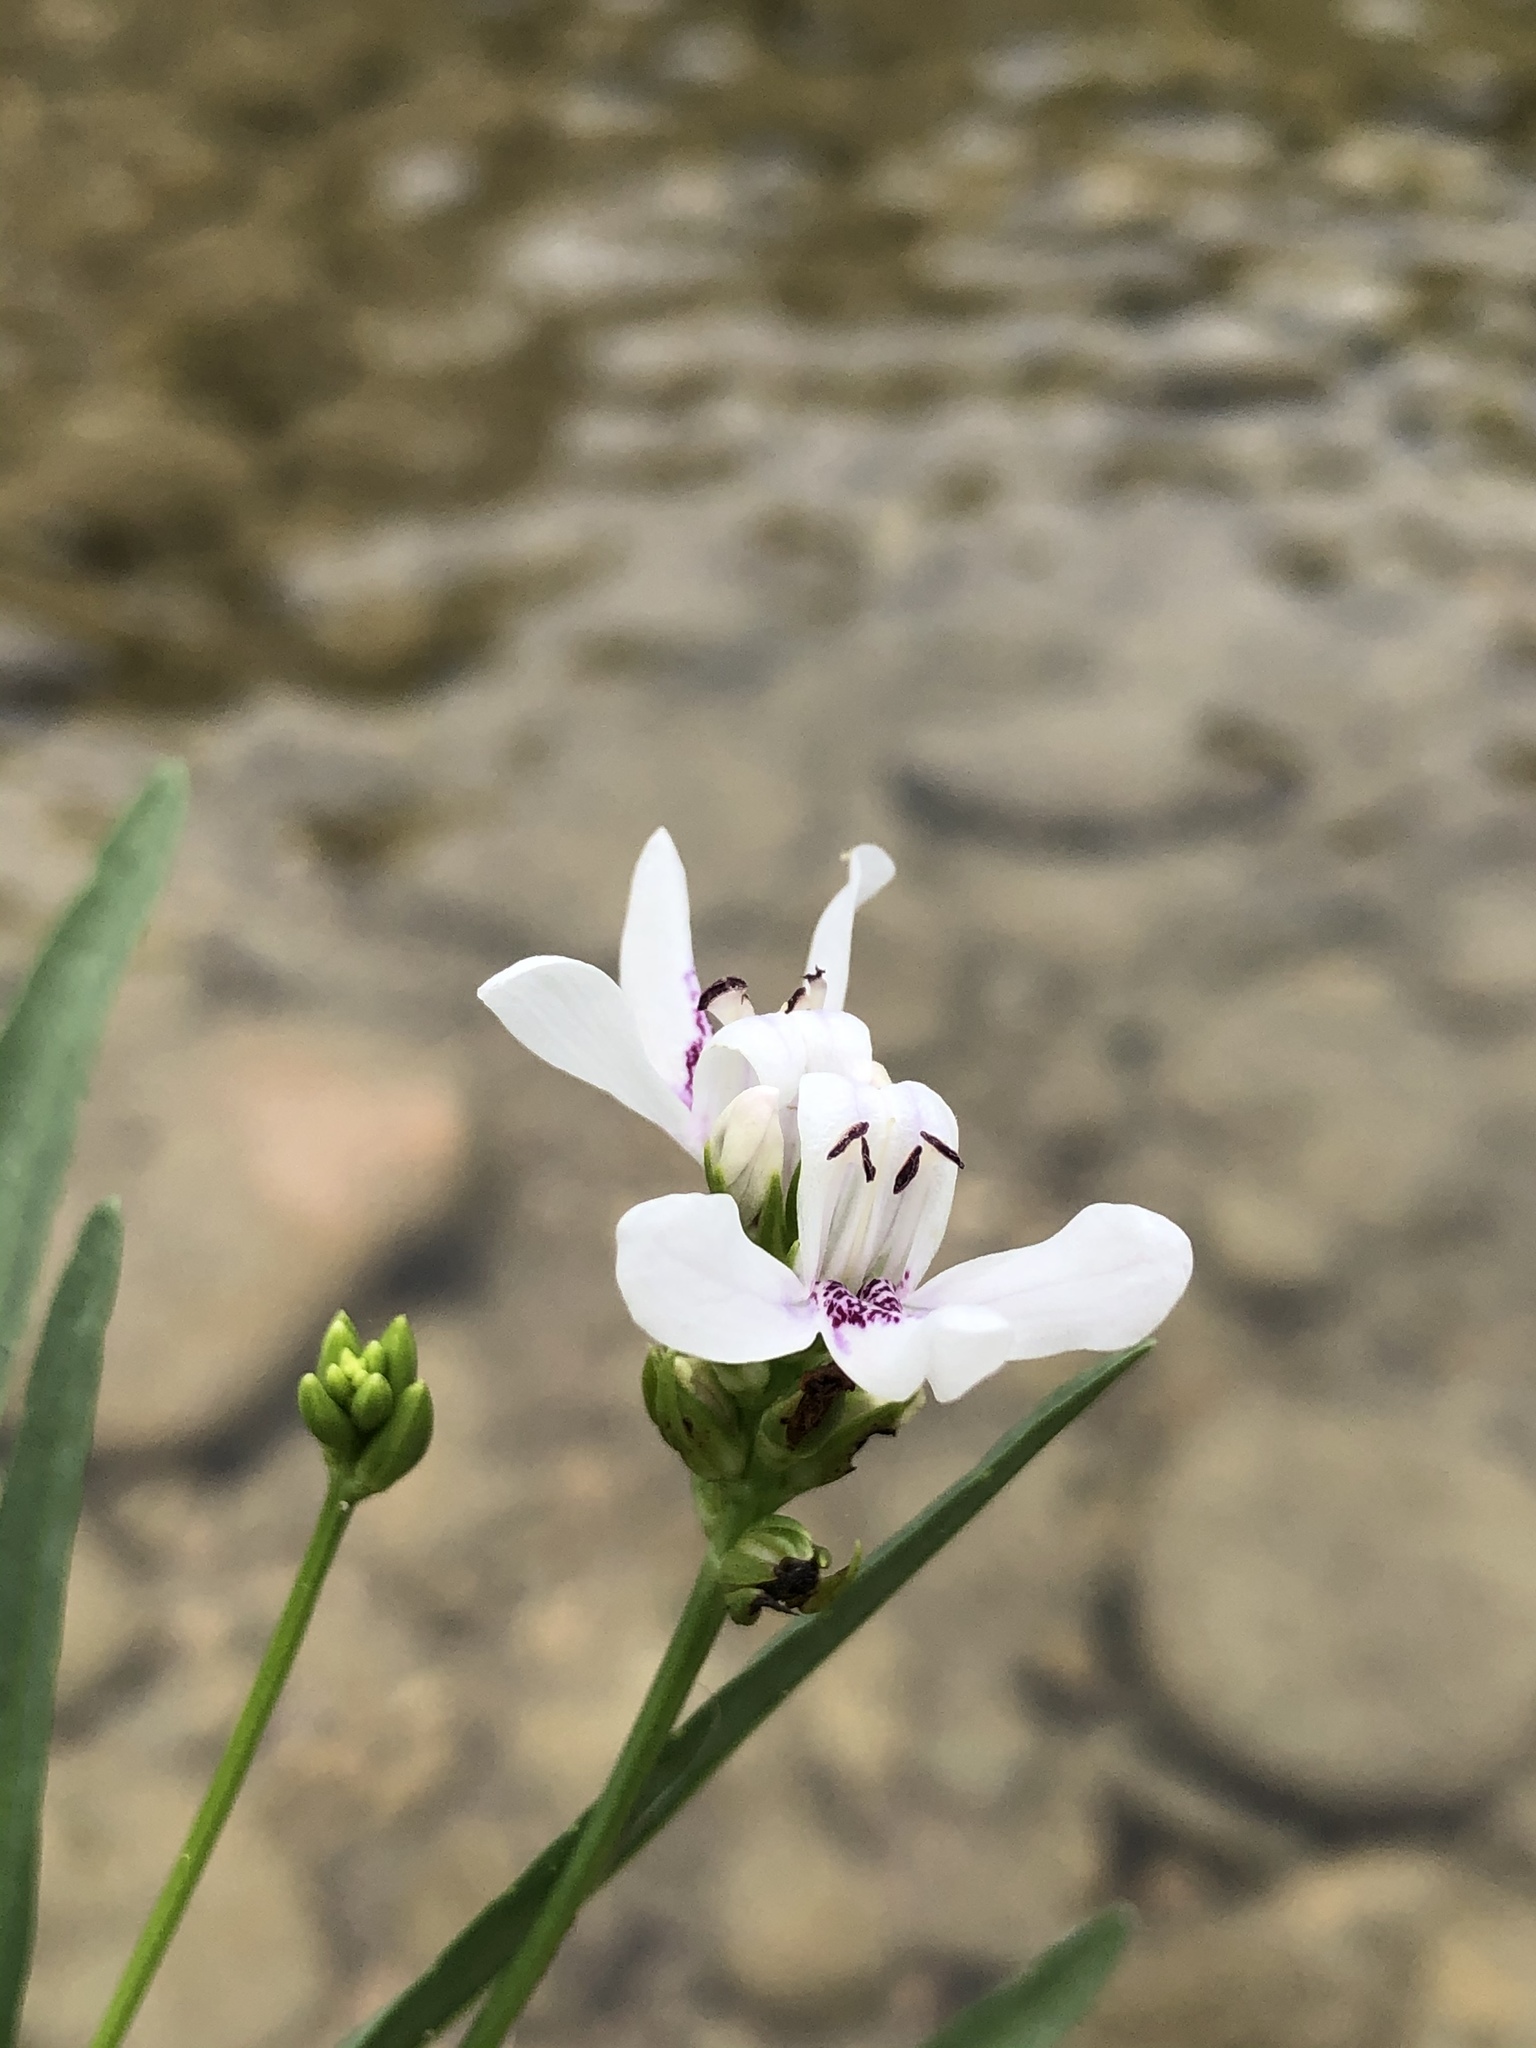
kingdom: Plantae
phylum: Tracheophyta
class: Magnoliopsida
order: Lamiales
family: Acanthaceae
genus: Dianthera
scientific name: Dianthera americana
